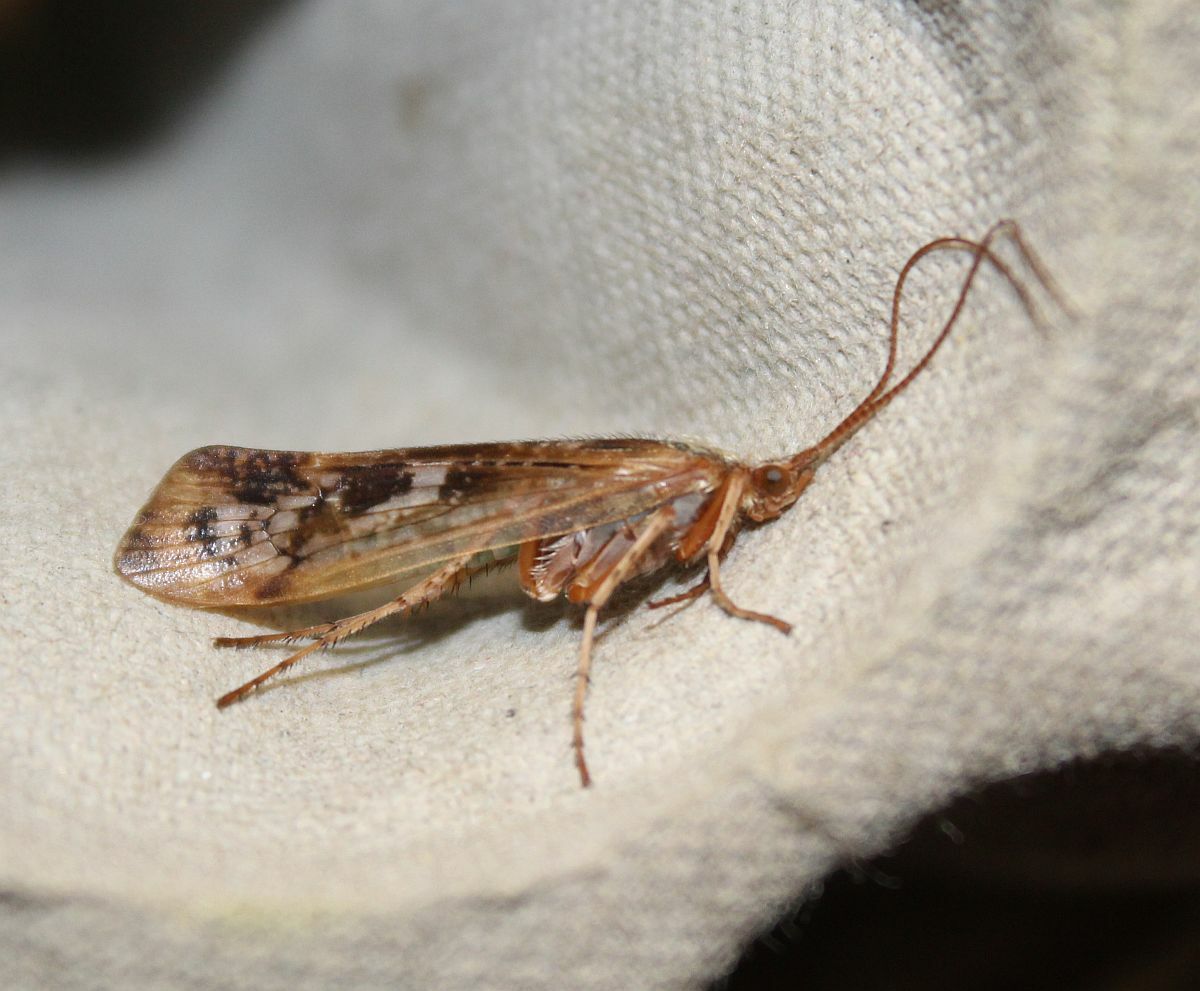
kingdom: Animalia
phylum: Arthropoda
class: Insecta
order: Trichoptera
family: Limnephilidae
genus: Limnephilus
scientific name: Limnephilus marmoratus
